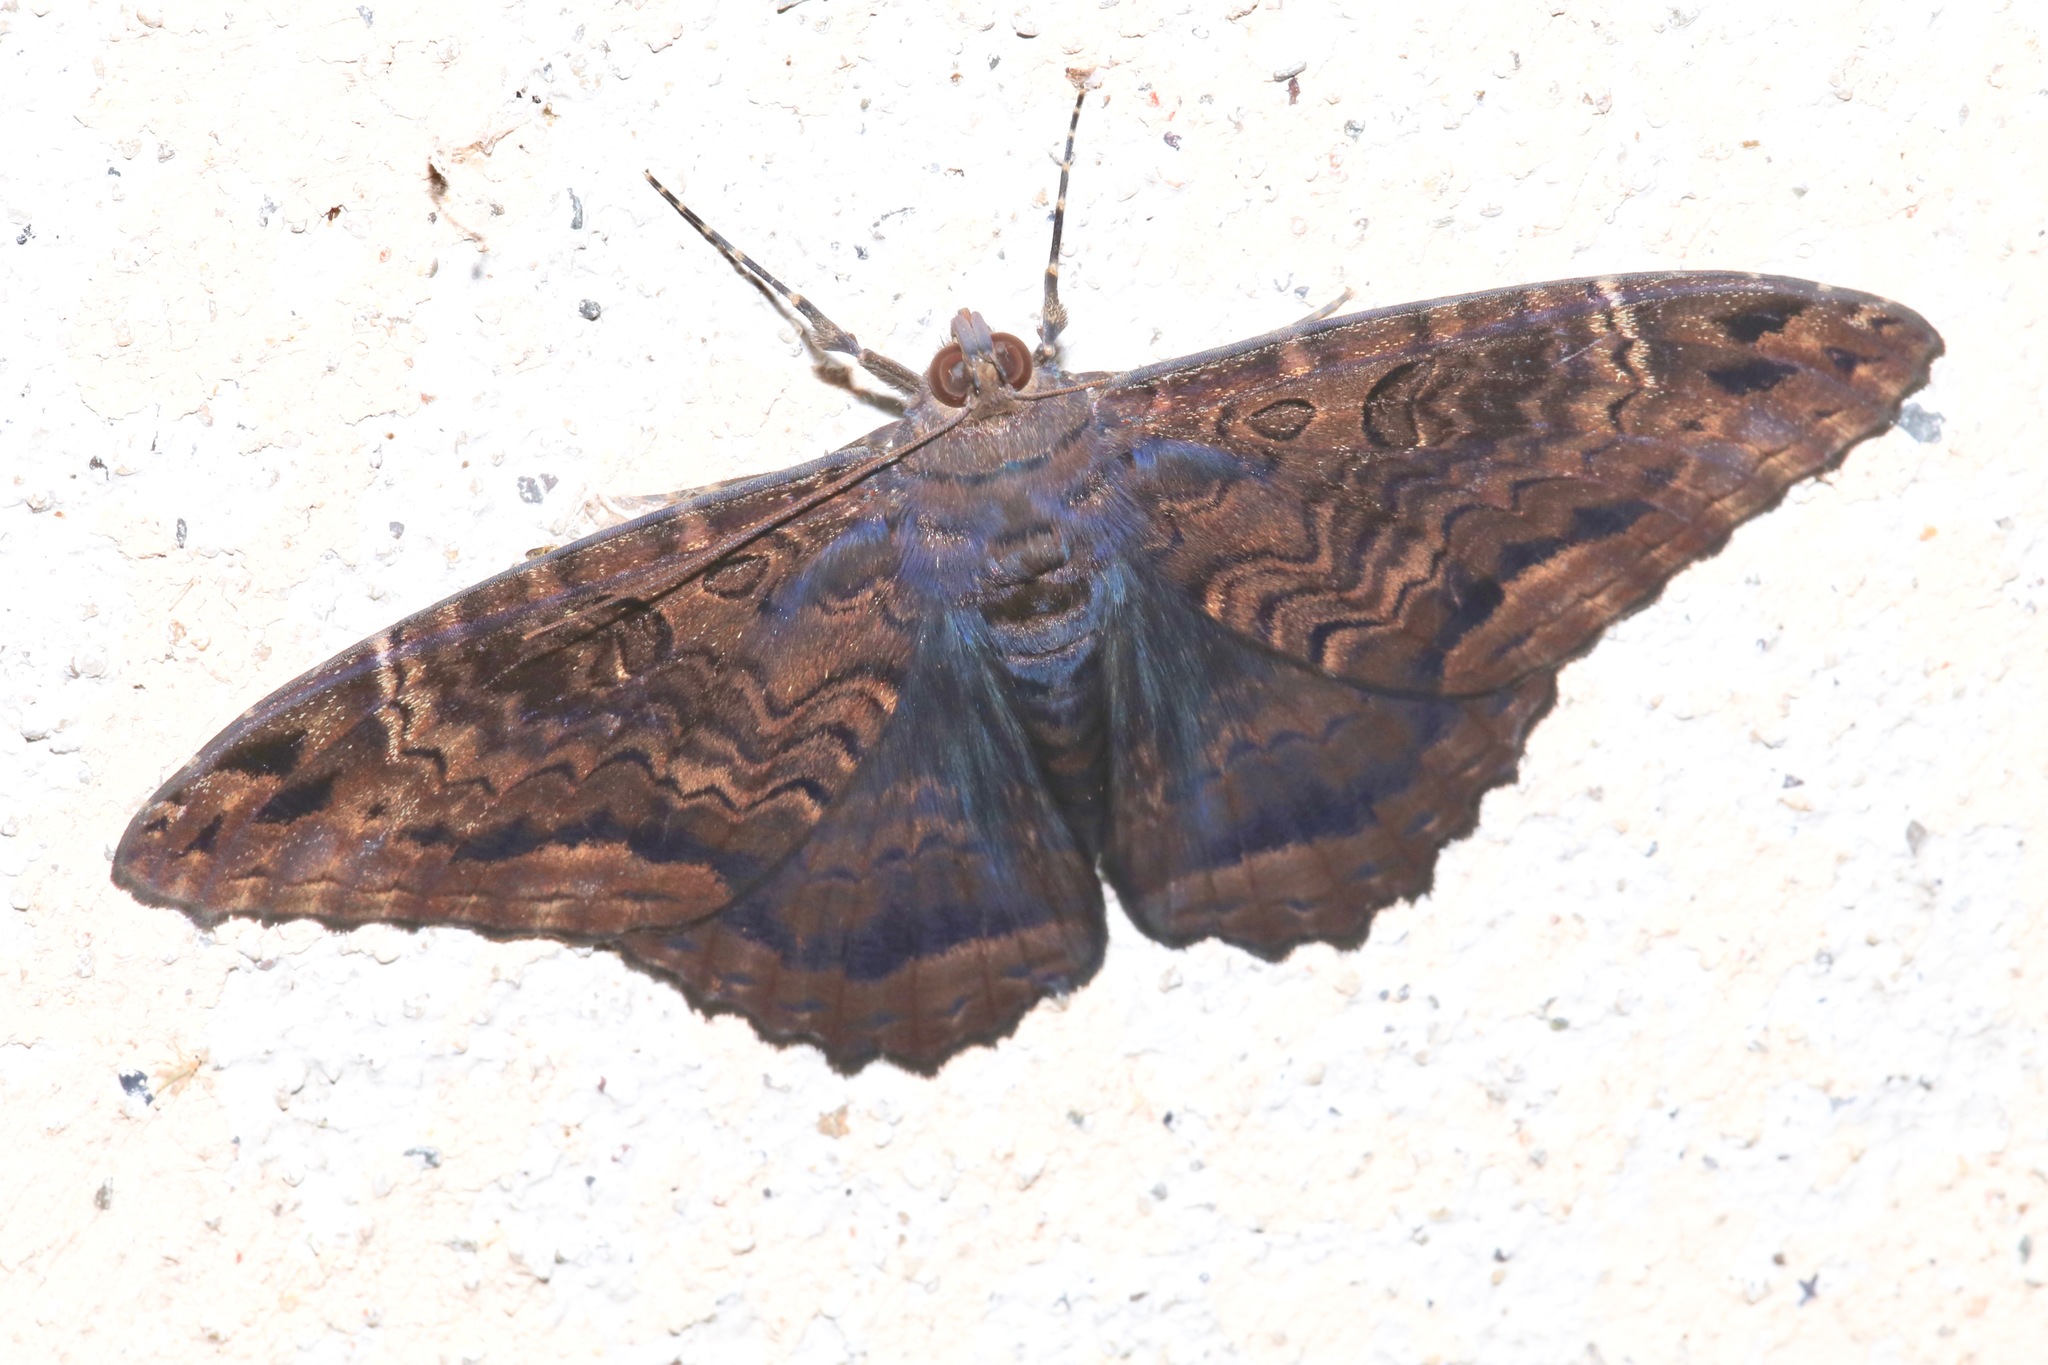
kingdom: Animalia
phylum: Arthropoda
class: Insecta
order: Lepidoptera
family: Erebidae
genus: Feigeria
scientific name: Feigeria
